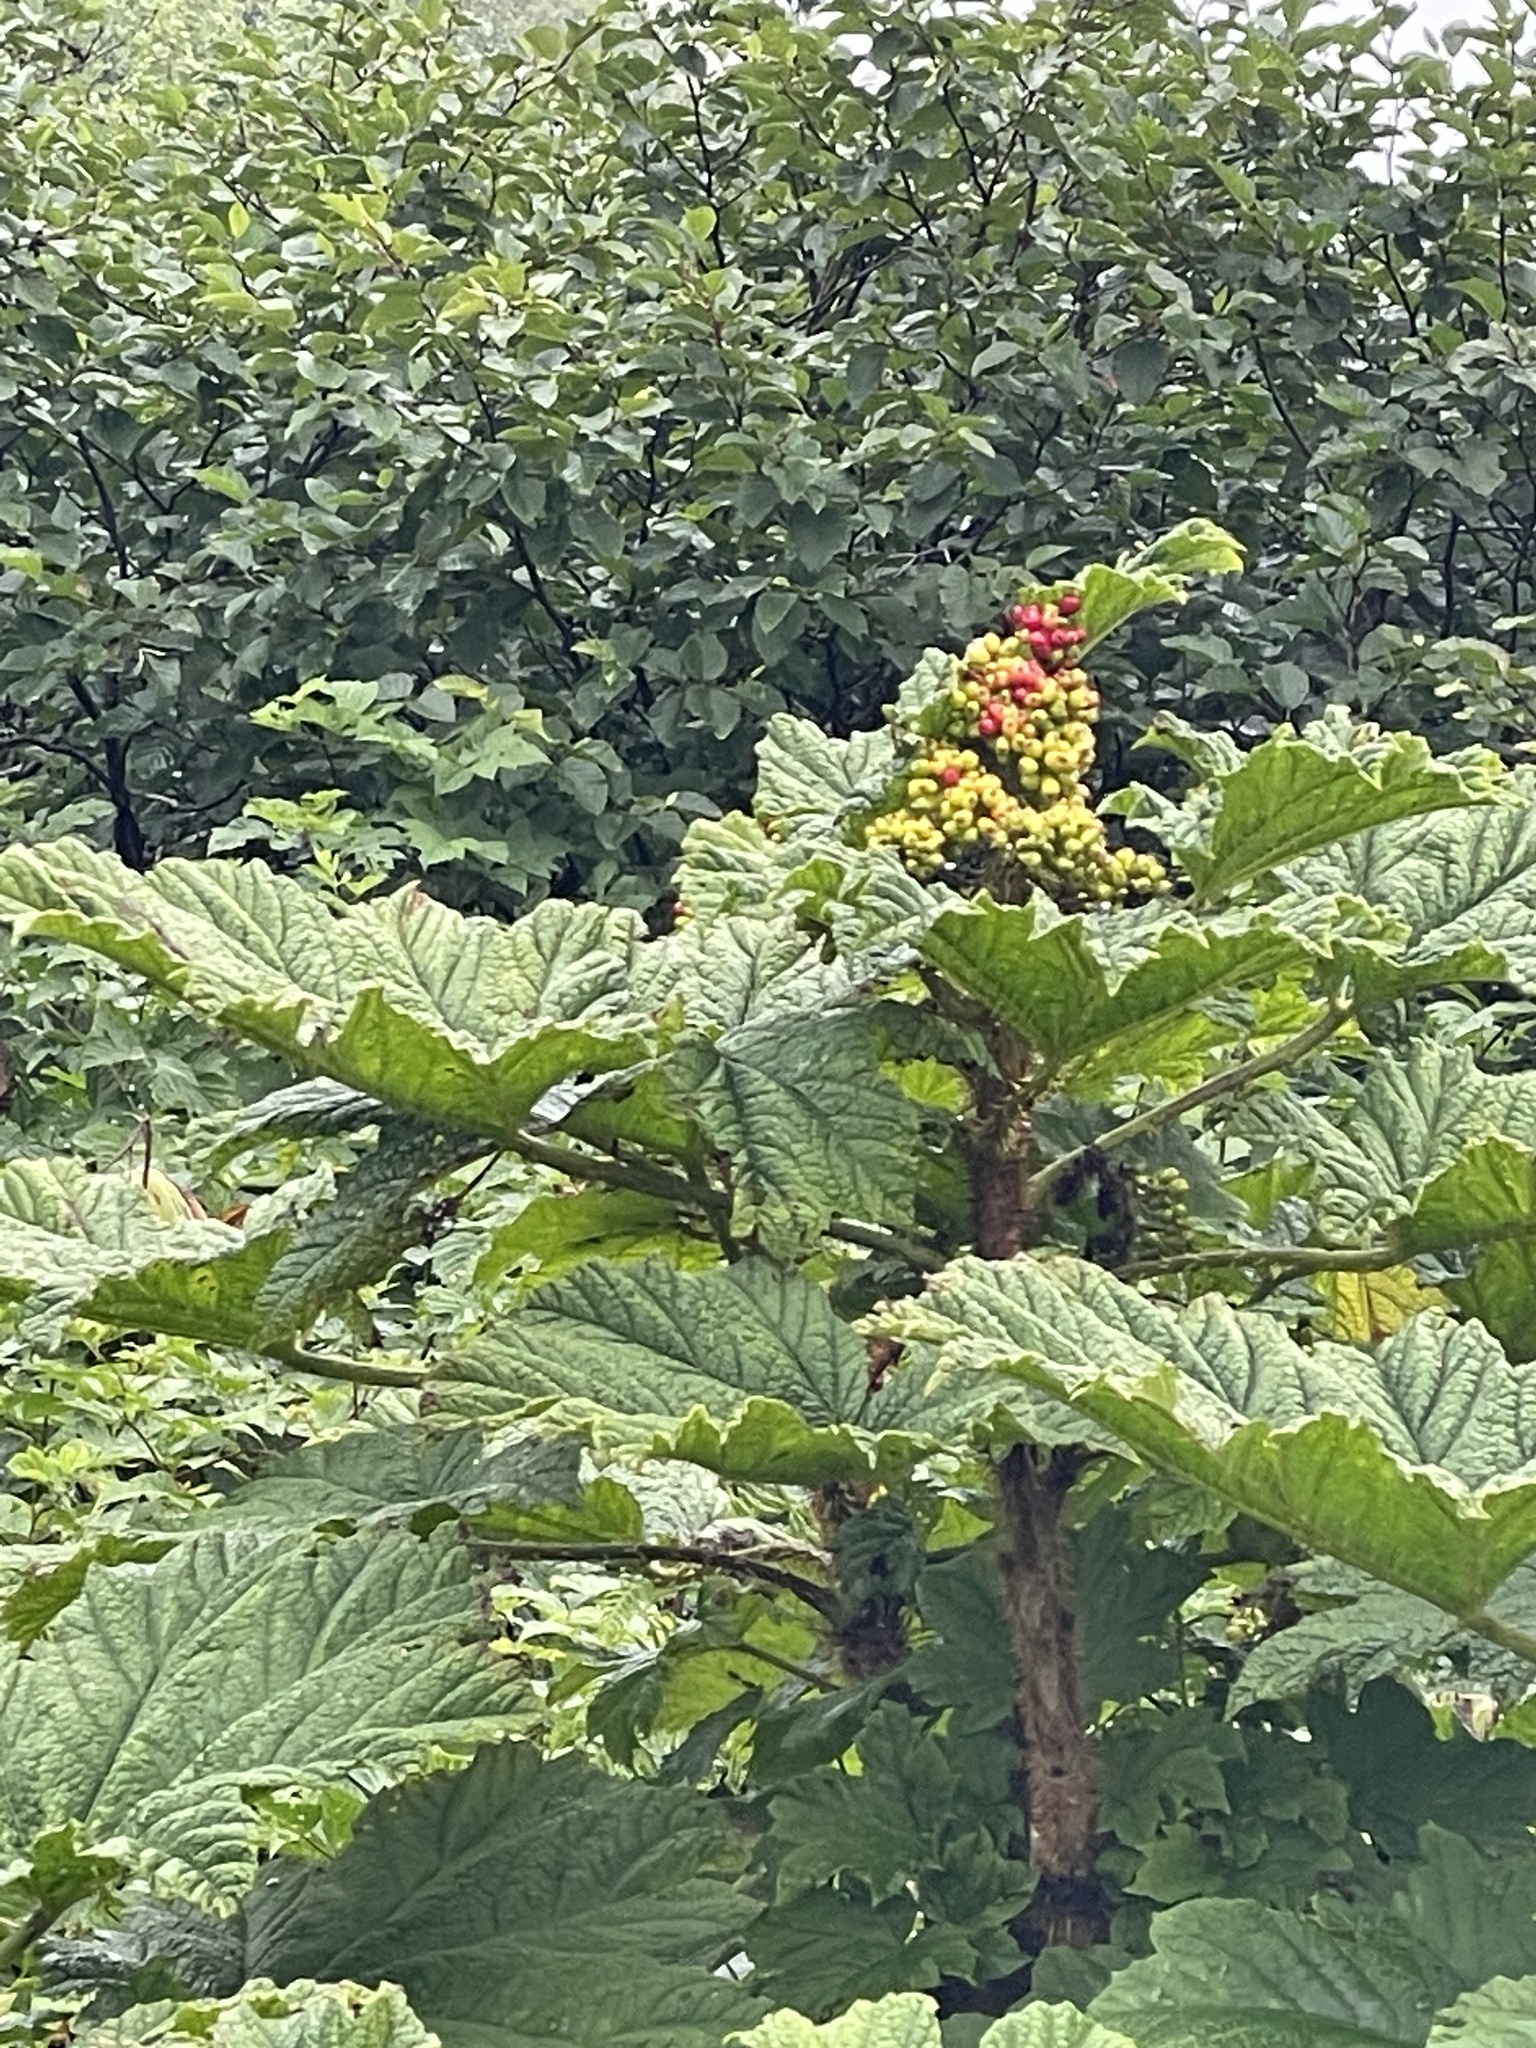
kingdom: Plantae
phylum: Tracheophyta
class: Magnoliopsida
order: Apiales
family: Araliaceae
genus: Oplopanax
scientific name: Oplopanax horridus
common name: Devil's walking-stick
